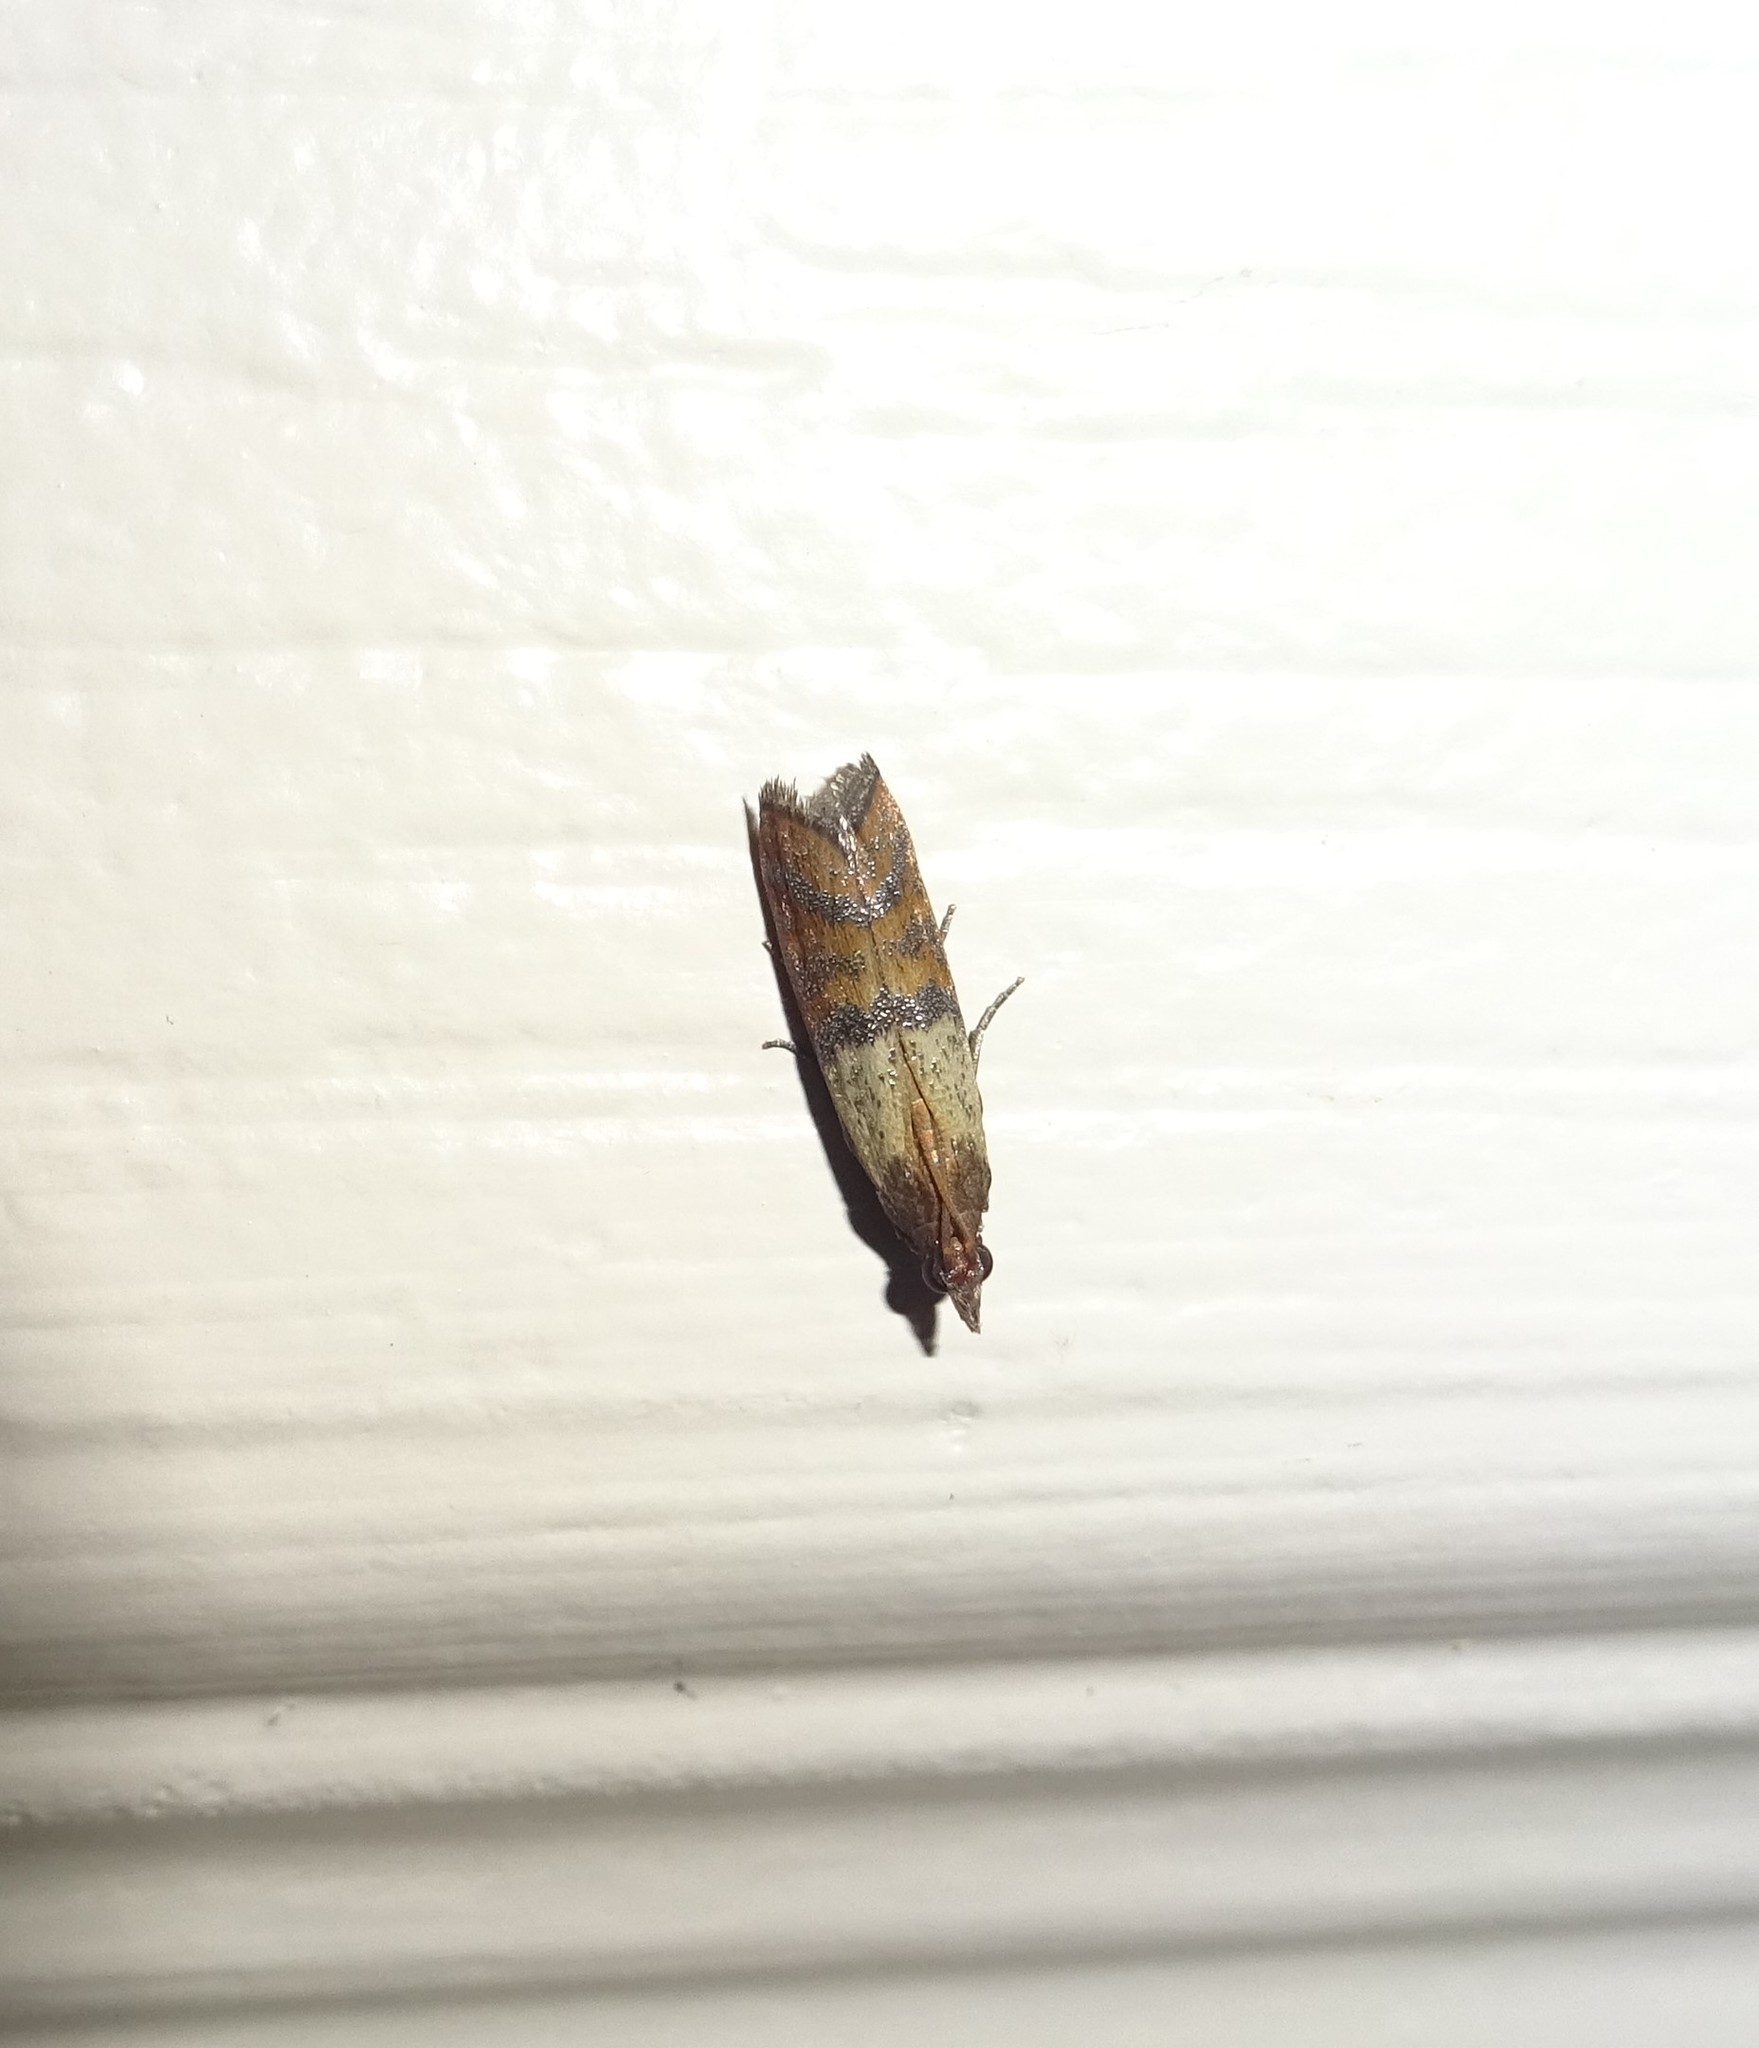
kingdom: Animalia
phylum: Arthropoda
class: Insecta
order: Lepidoptera
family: Pyralidae
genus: Plodia
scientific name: Plodia interpunctella
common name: Indian meal moth
